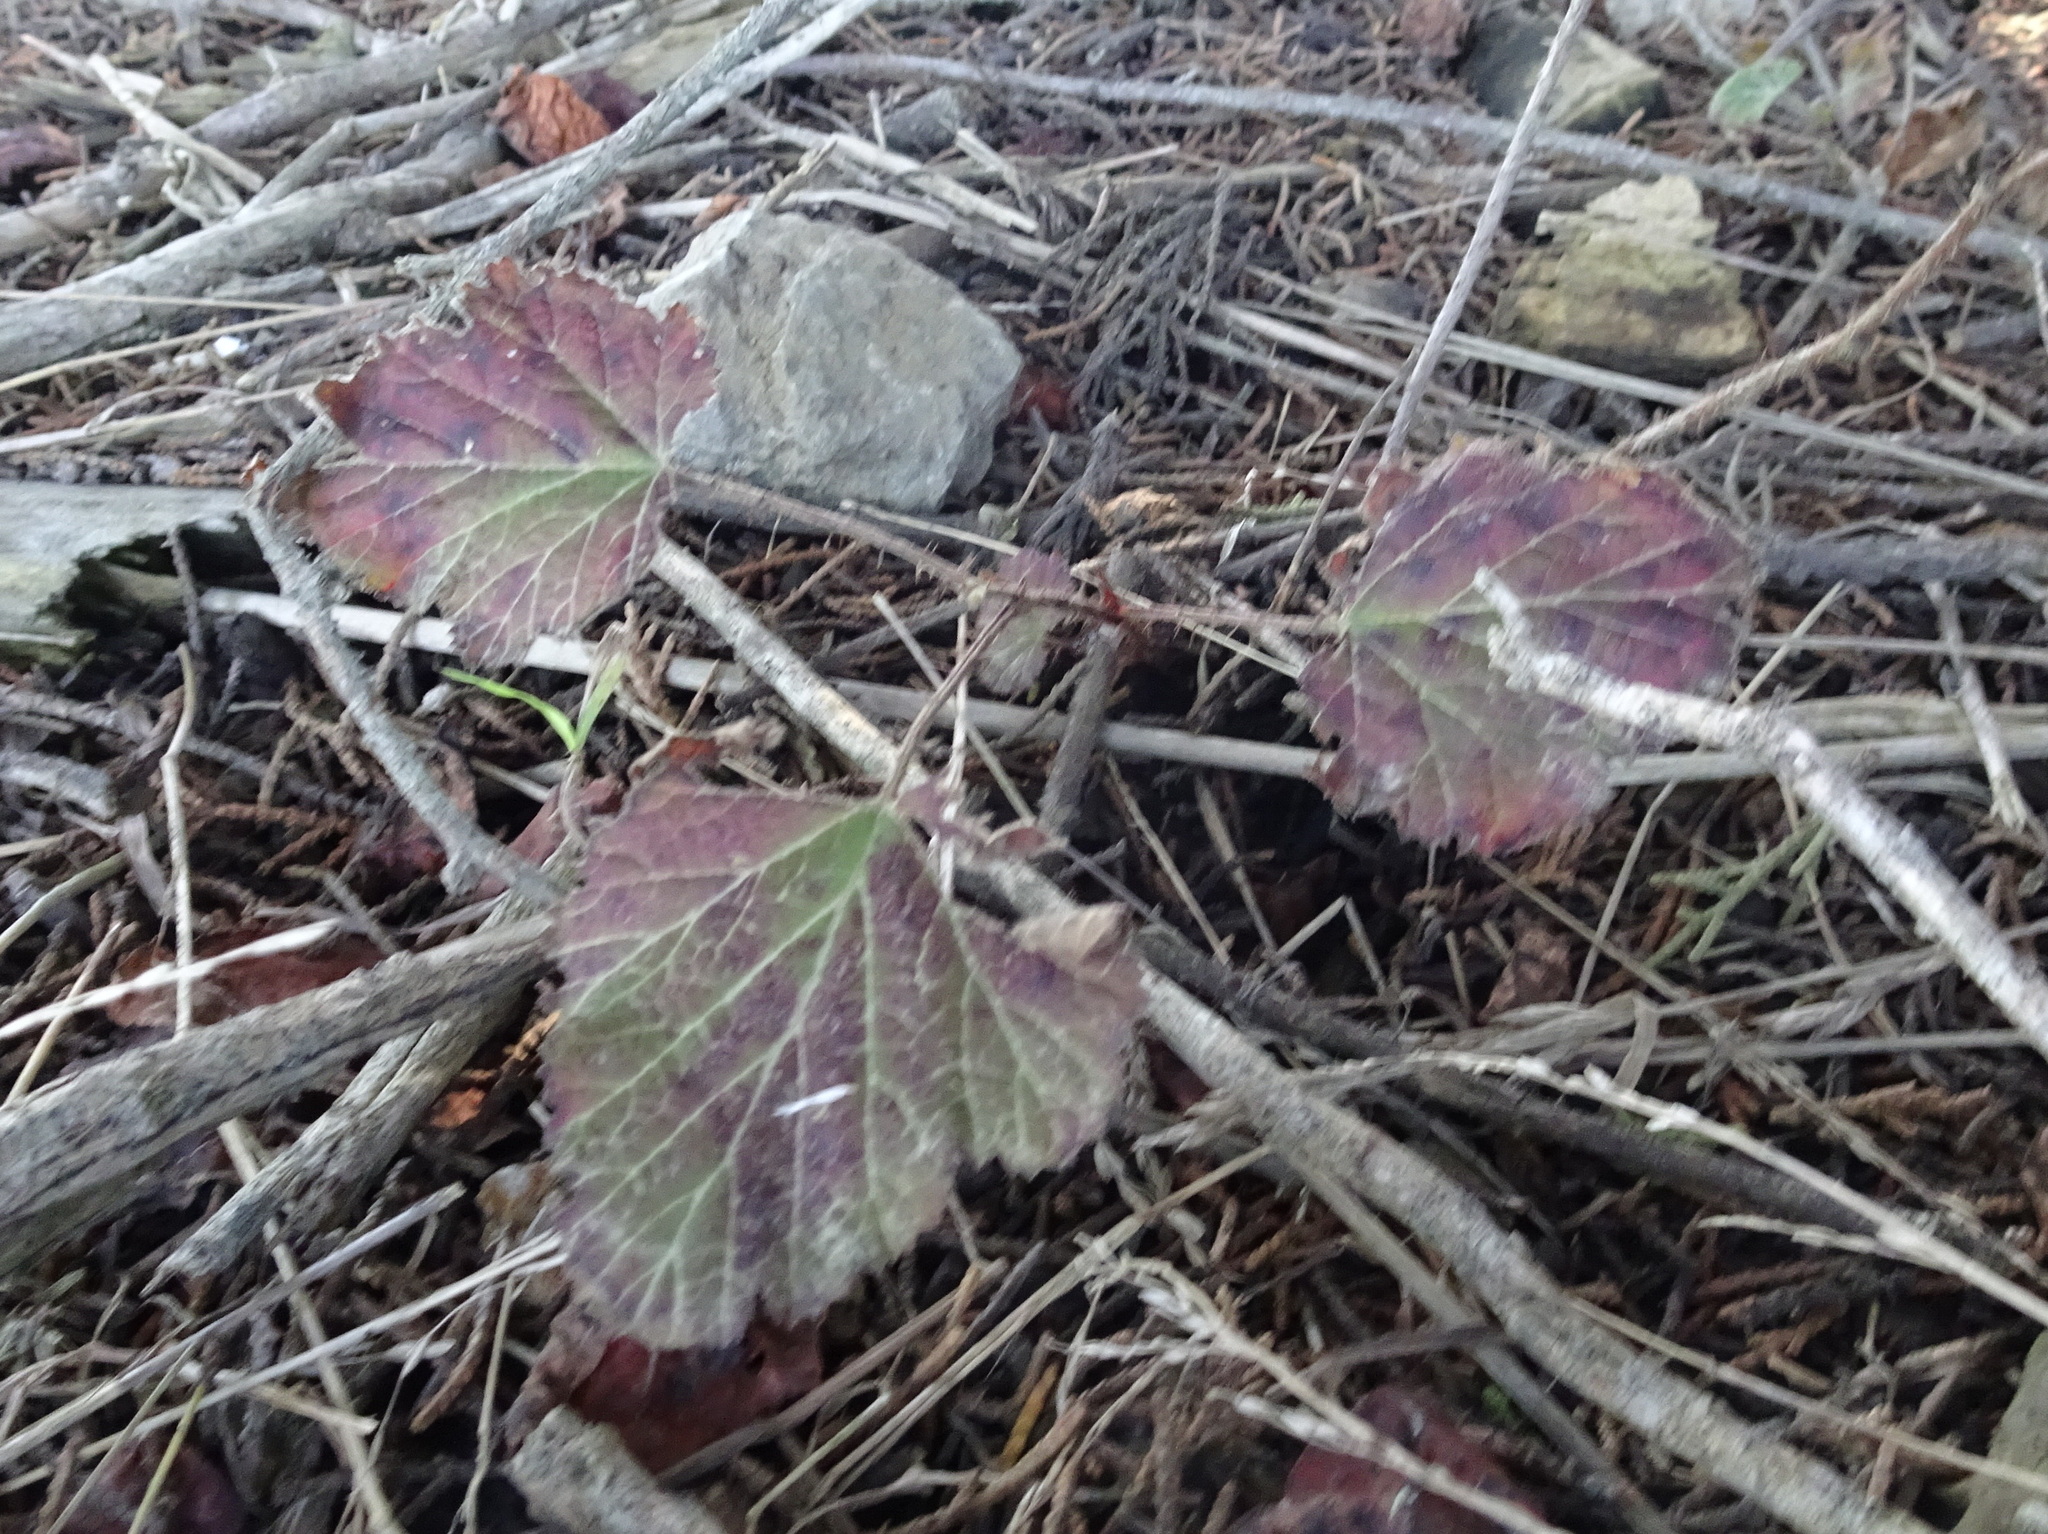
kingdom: Plantae
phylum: Tracheophyta
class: Magnoliopsida
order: Rosales
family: Rosaceae
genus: Rubus
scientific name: Rubus ursinus
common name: Pacific blackberry
